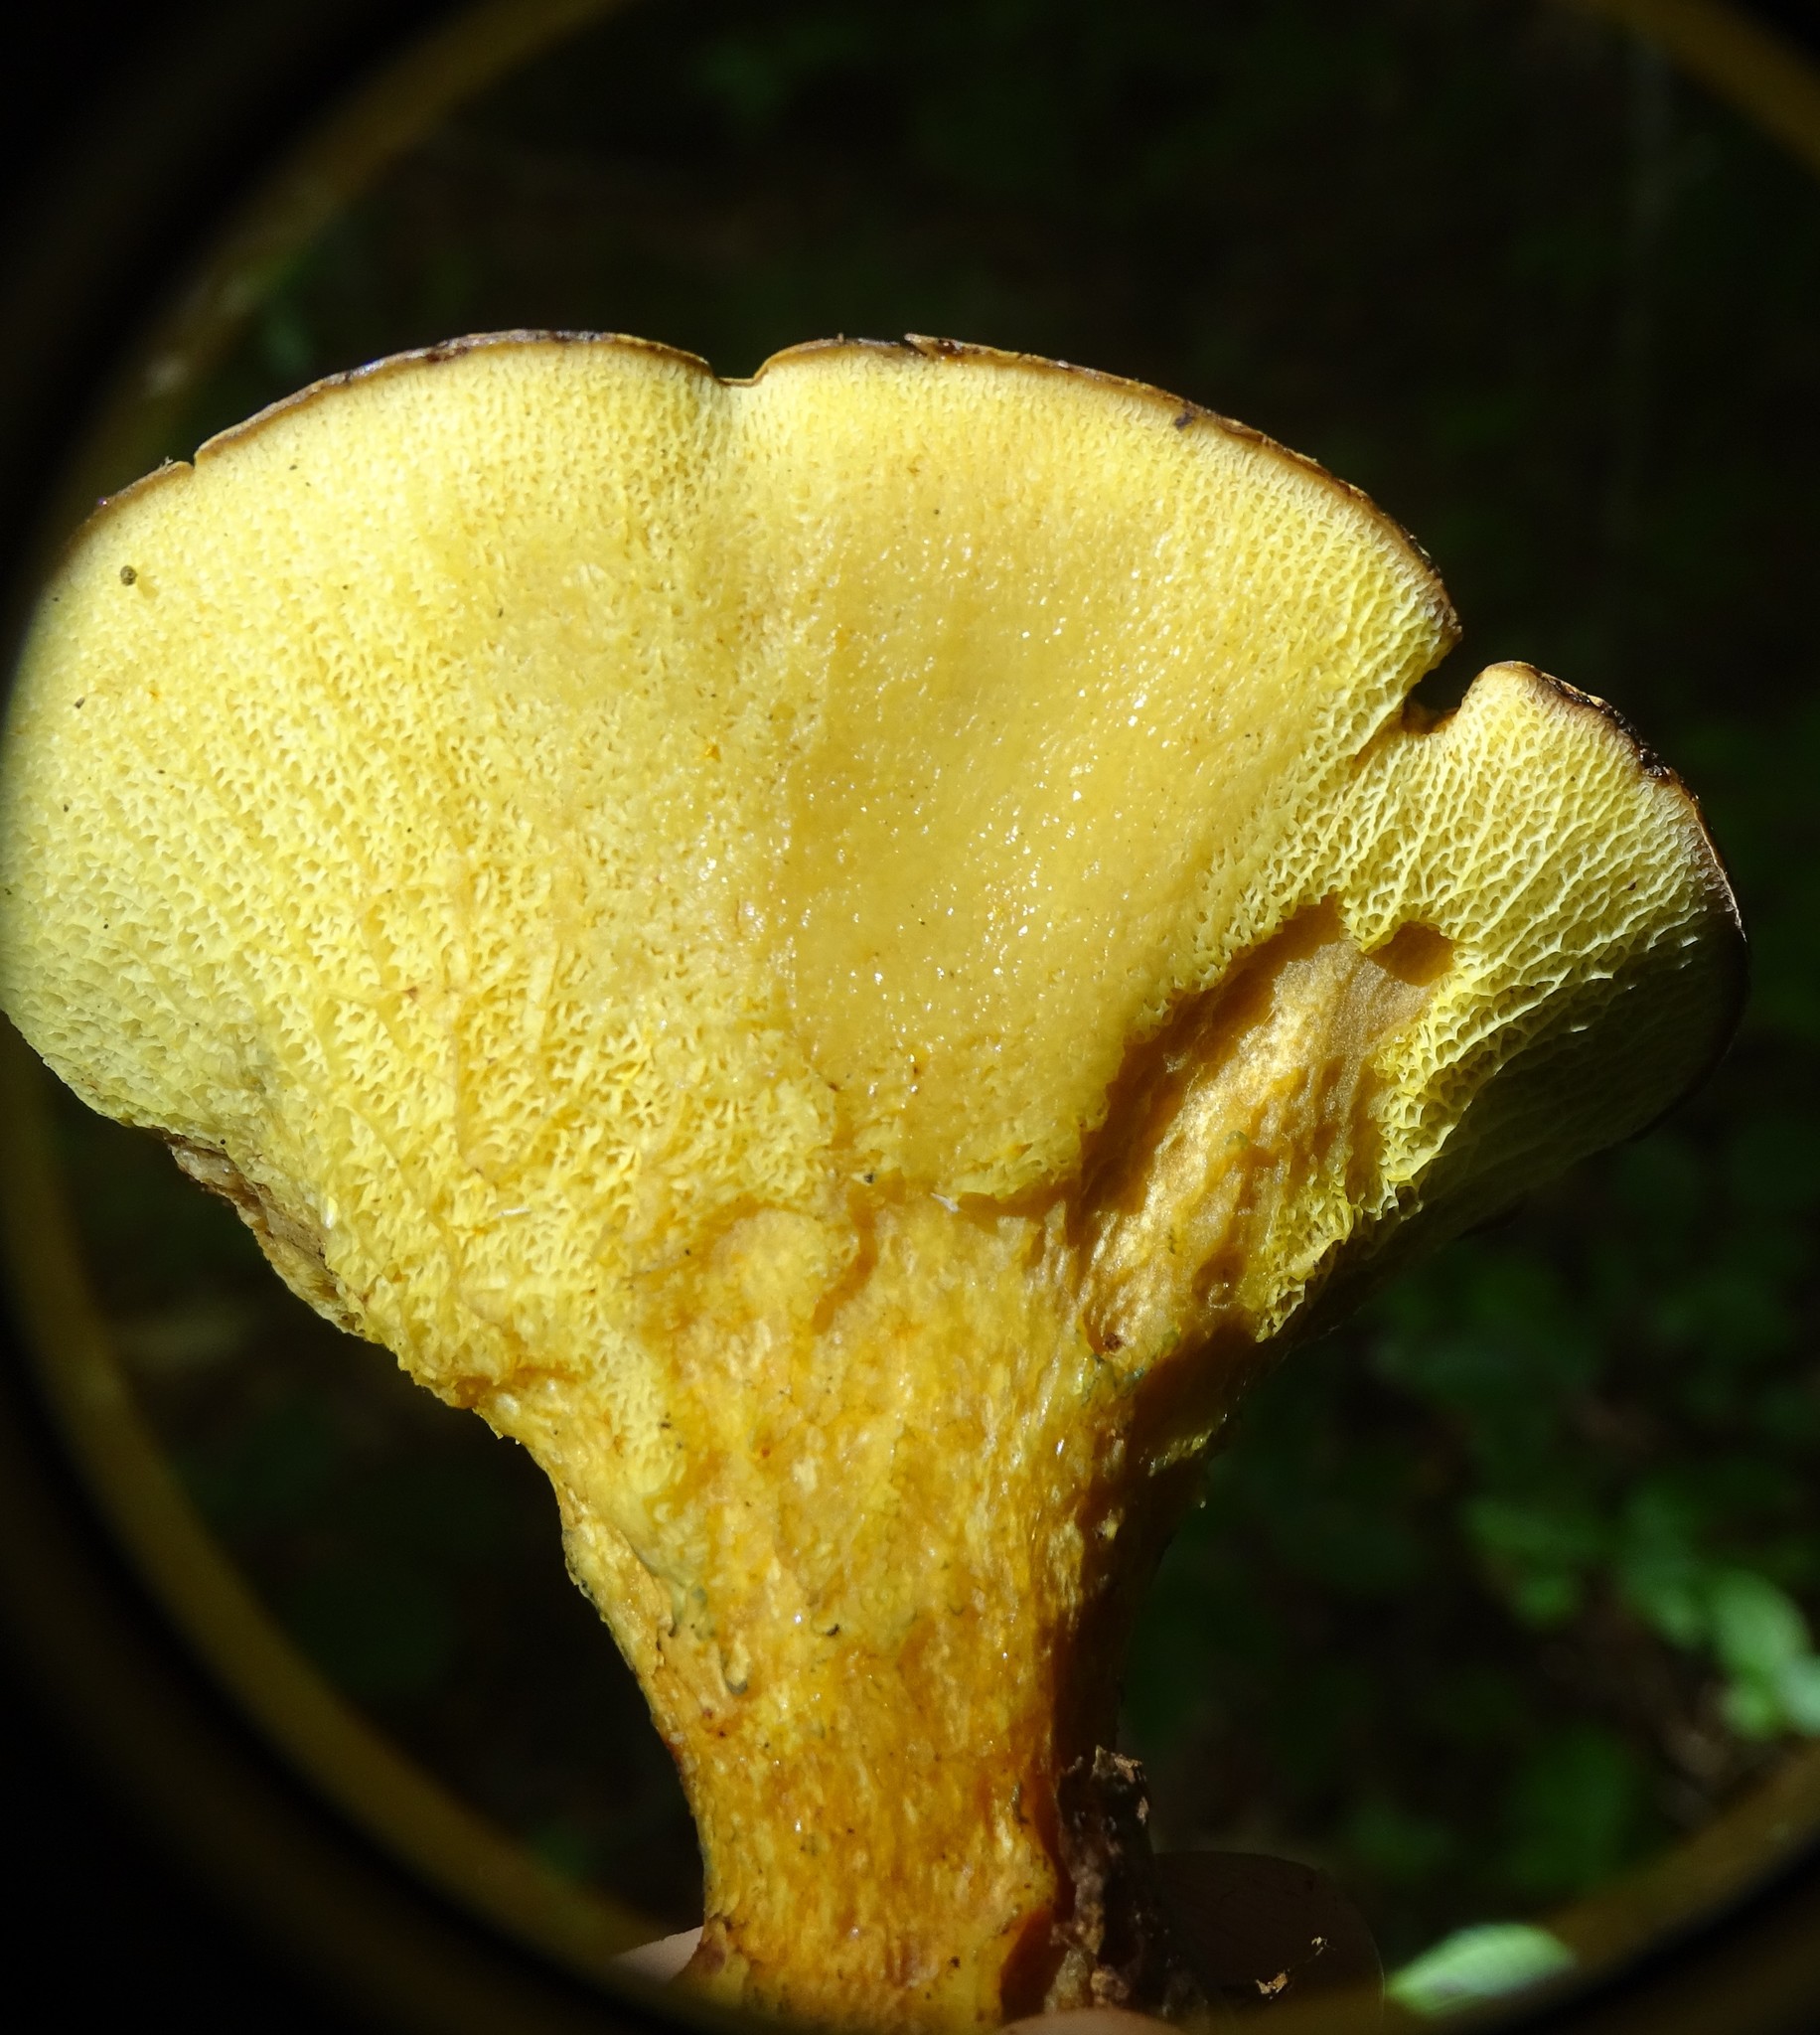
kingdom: Fungi
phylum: Basidiomycota
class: Agaricomycetes
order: Boletales
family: Boletinellaceae
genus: Boletinellus
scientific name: Boletinellus merulioides
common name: Ash tree bolete
